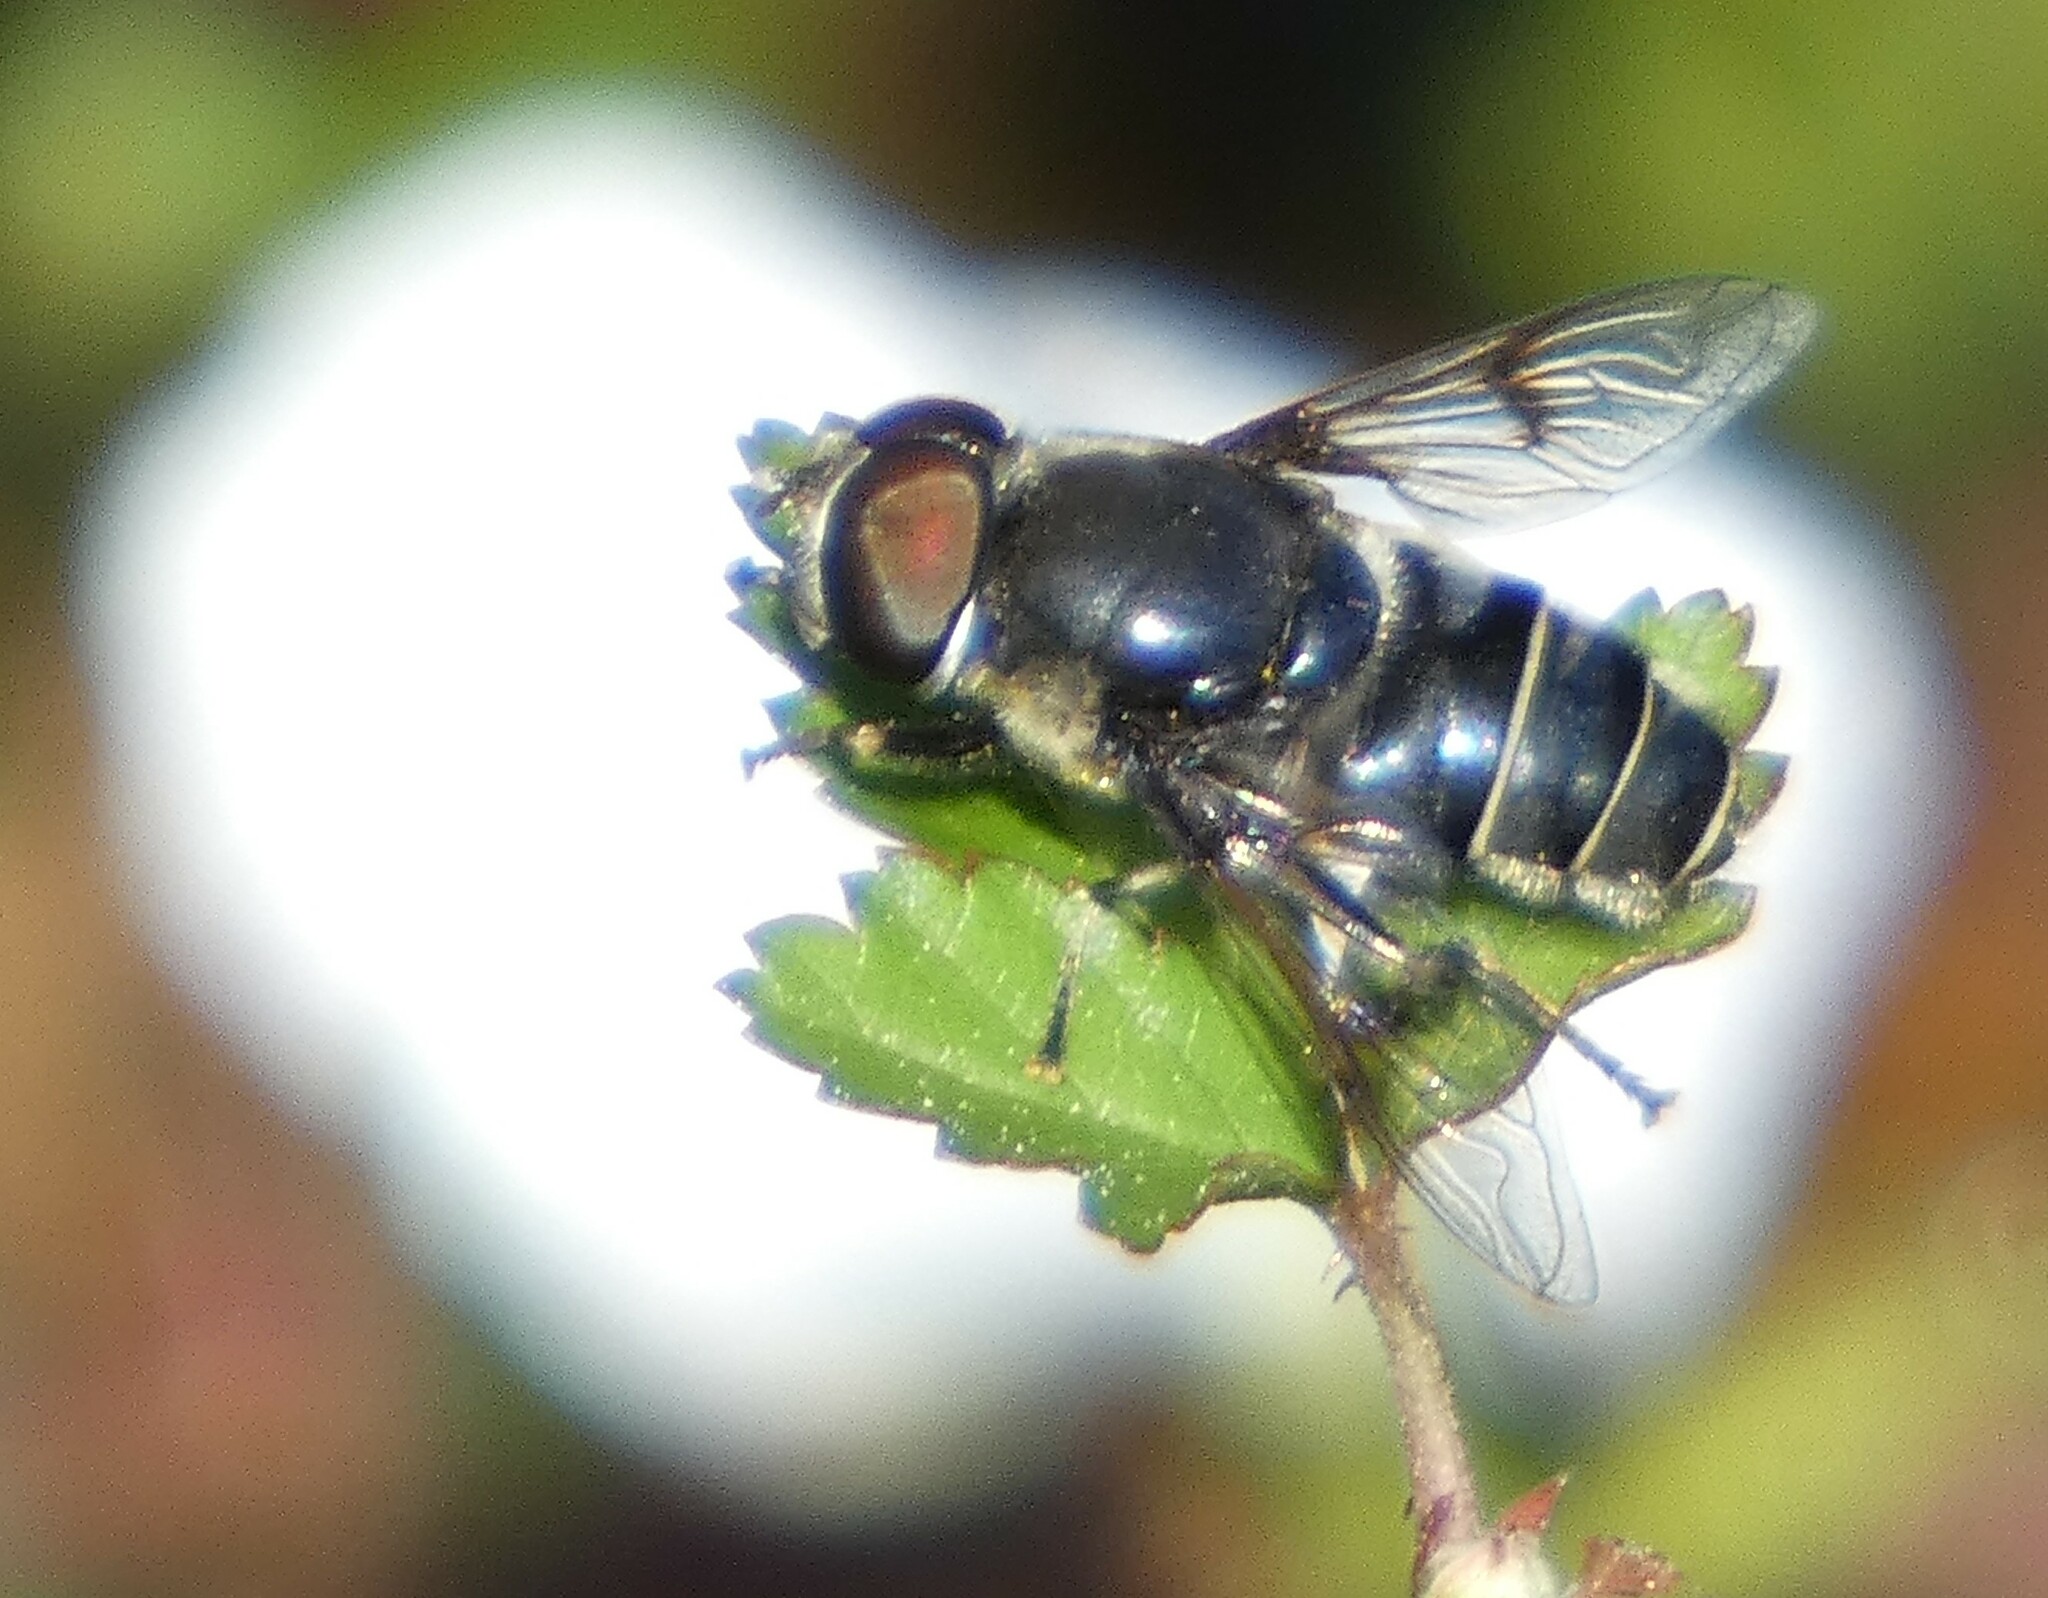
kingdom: Animalia
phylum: Arthropoda
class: Insecta
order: Diptera
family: Syrphidae
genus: Eristalis
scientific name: Eristalis saxorum
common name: Blue-polished drone fly
